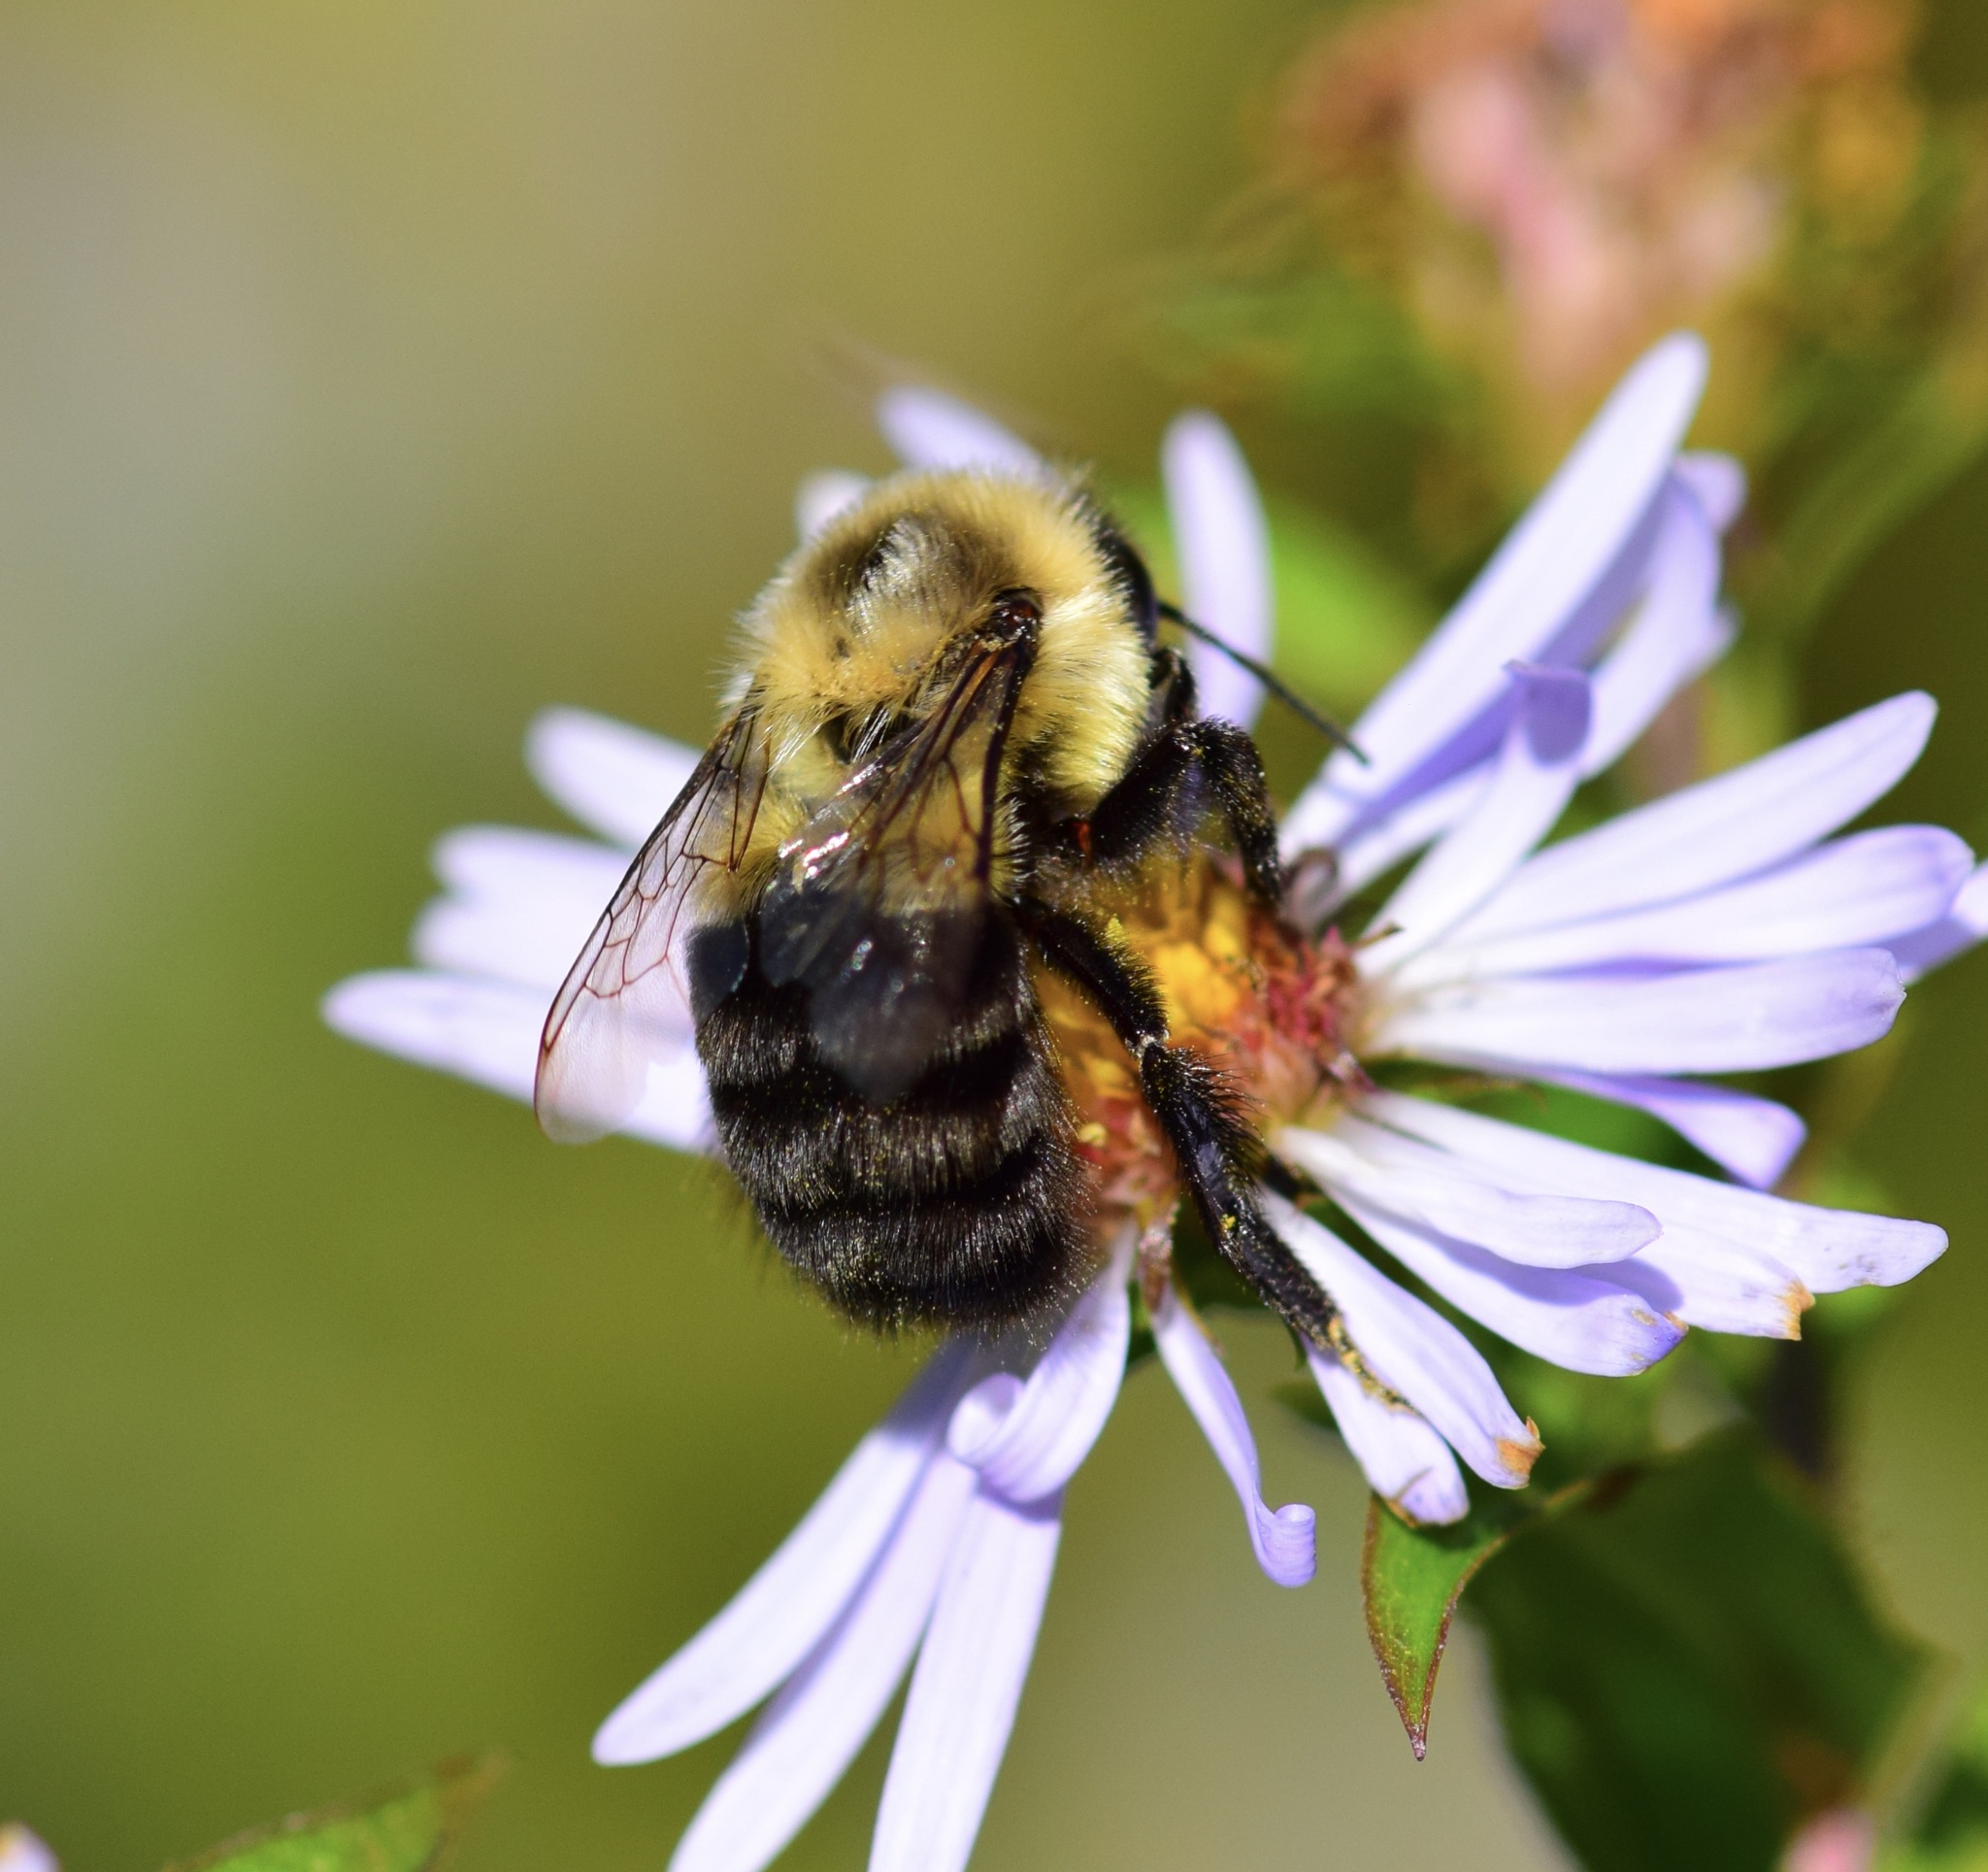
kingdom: Animalia
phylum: Arthropoda
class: Insecta
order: Hymenoptera
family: Apidae
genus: Bombus
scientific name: Bombus impatiens
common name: Common eastern bumble bee
